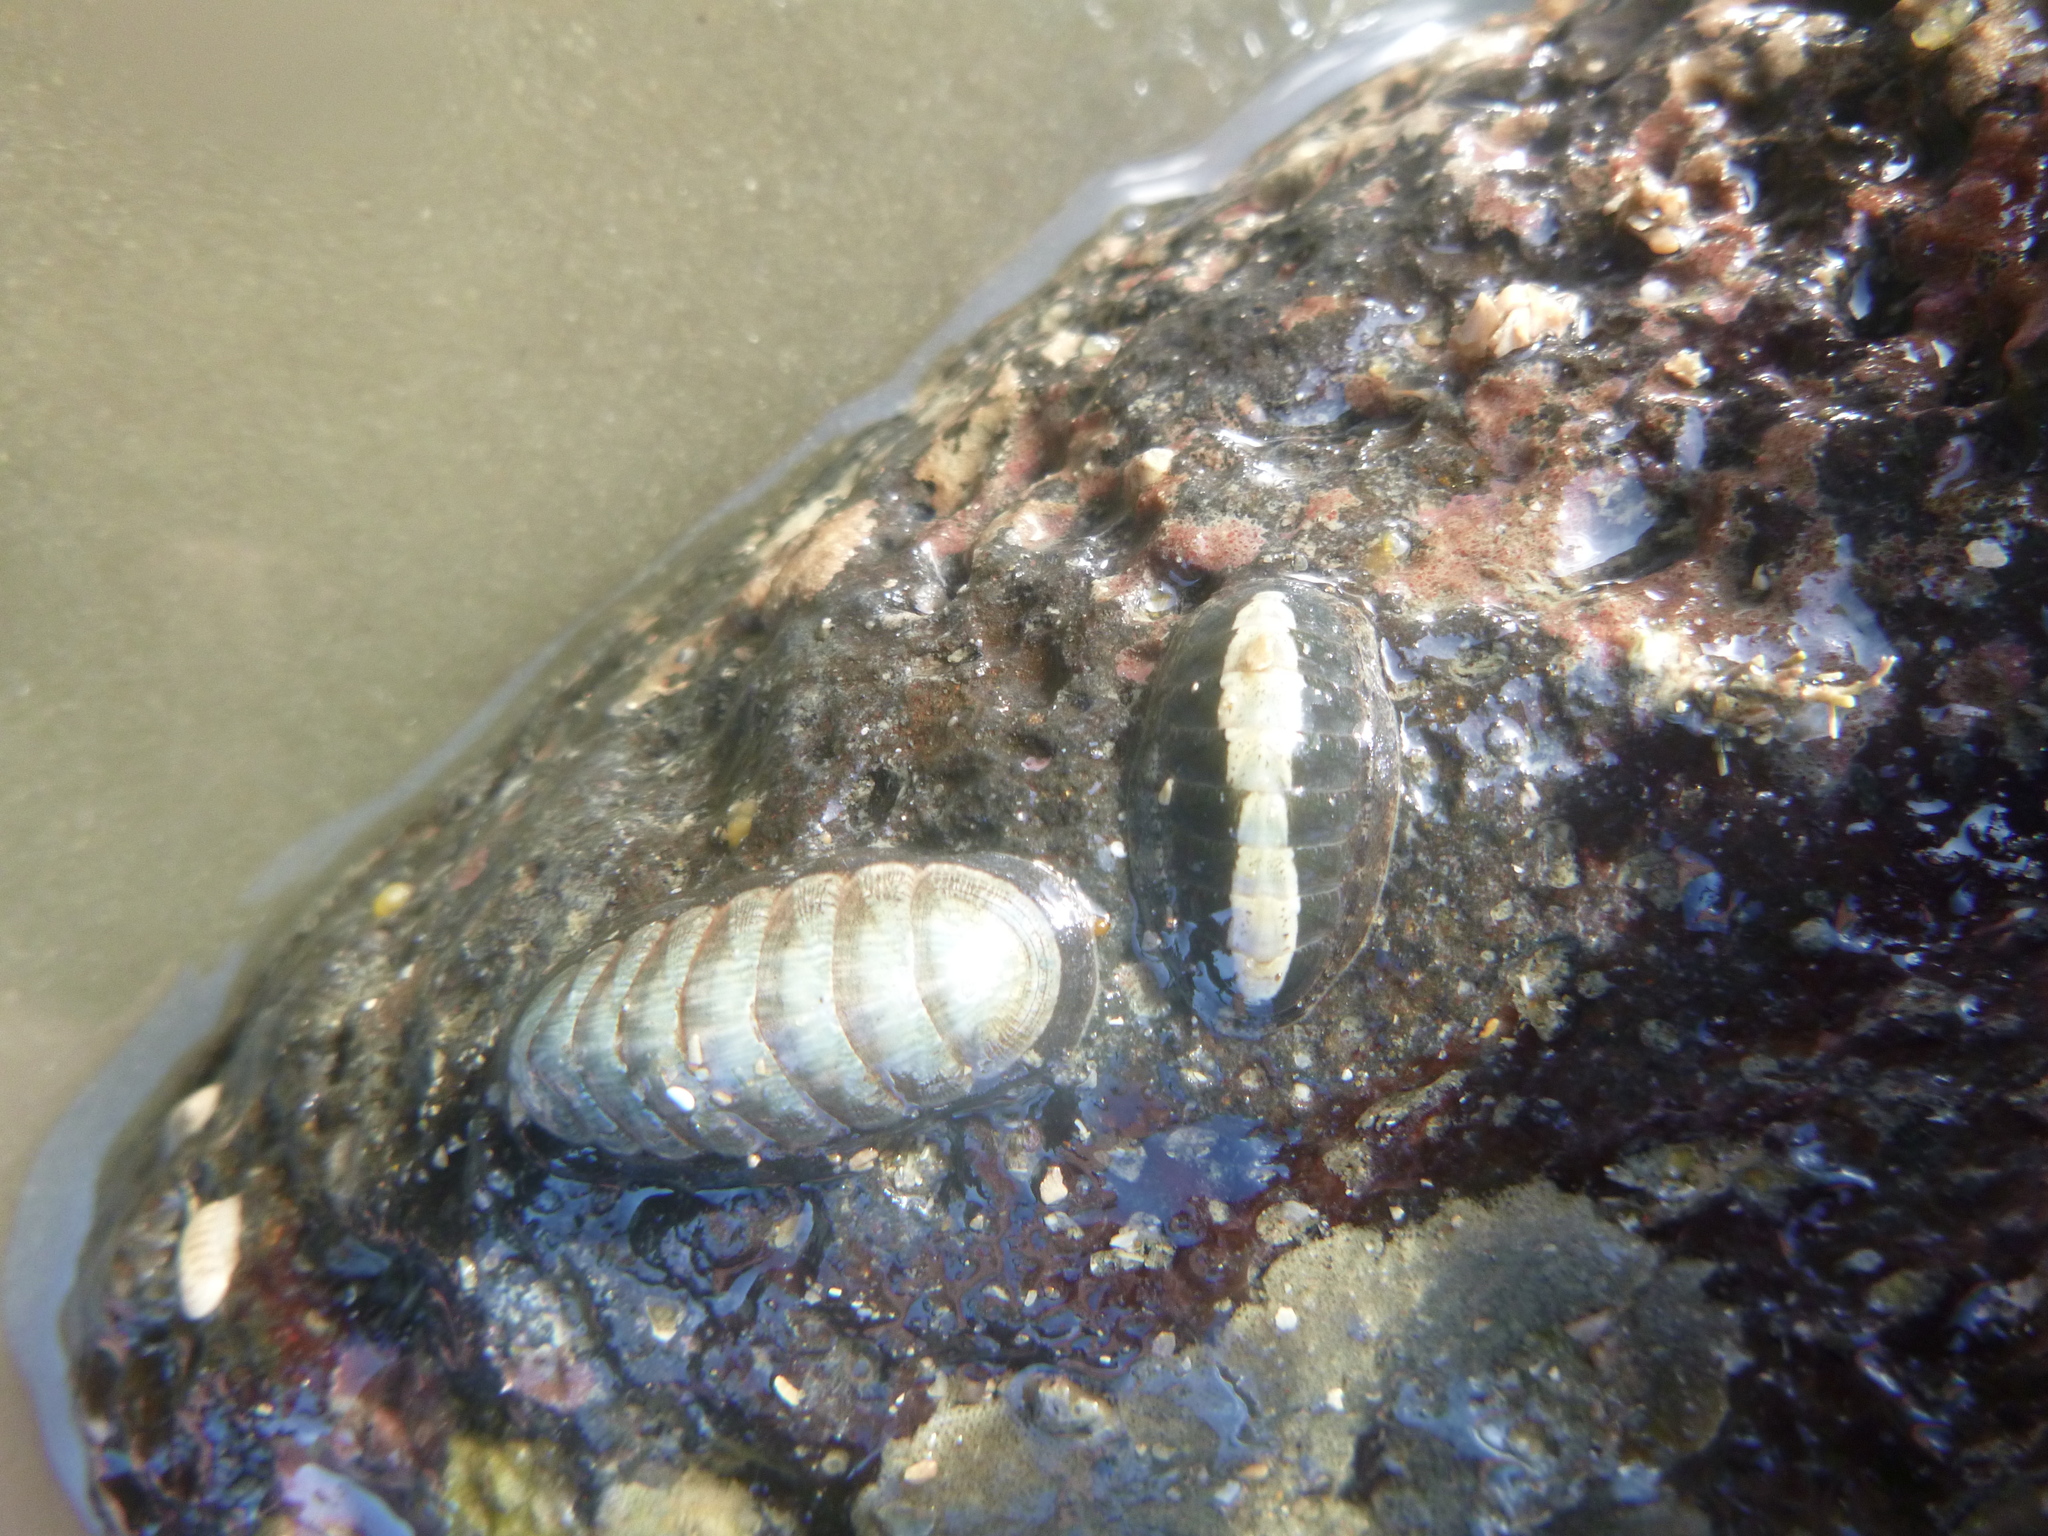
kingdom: Animalia
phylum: Mollusca
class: Polyplacophora
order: Chitonida
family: Ischnochitonidae
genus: Ischnochiton
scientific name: Ischnochiton maorianus
